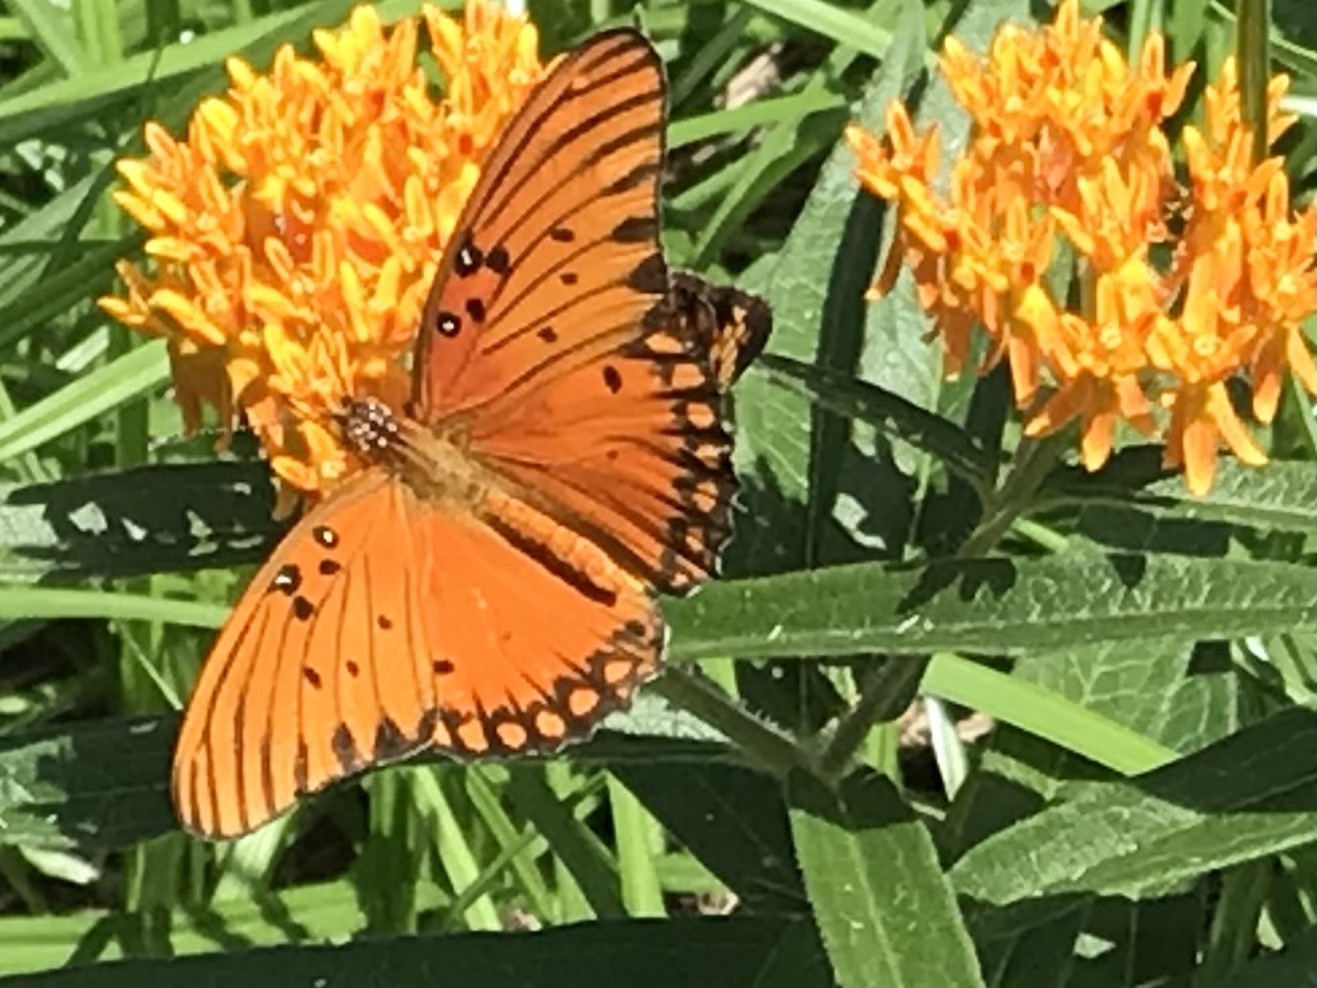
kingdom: Animalia
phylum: Arthropoda
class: Insecta
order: Lepidoptera
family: Nymphalidae
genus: Dione
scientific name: Dione vanillae
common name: Gulf fritillary
